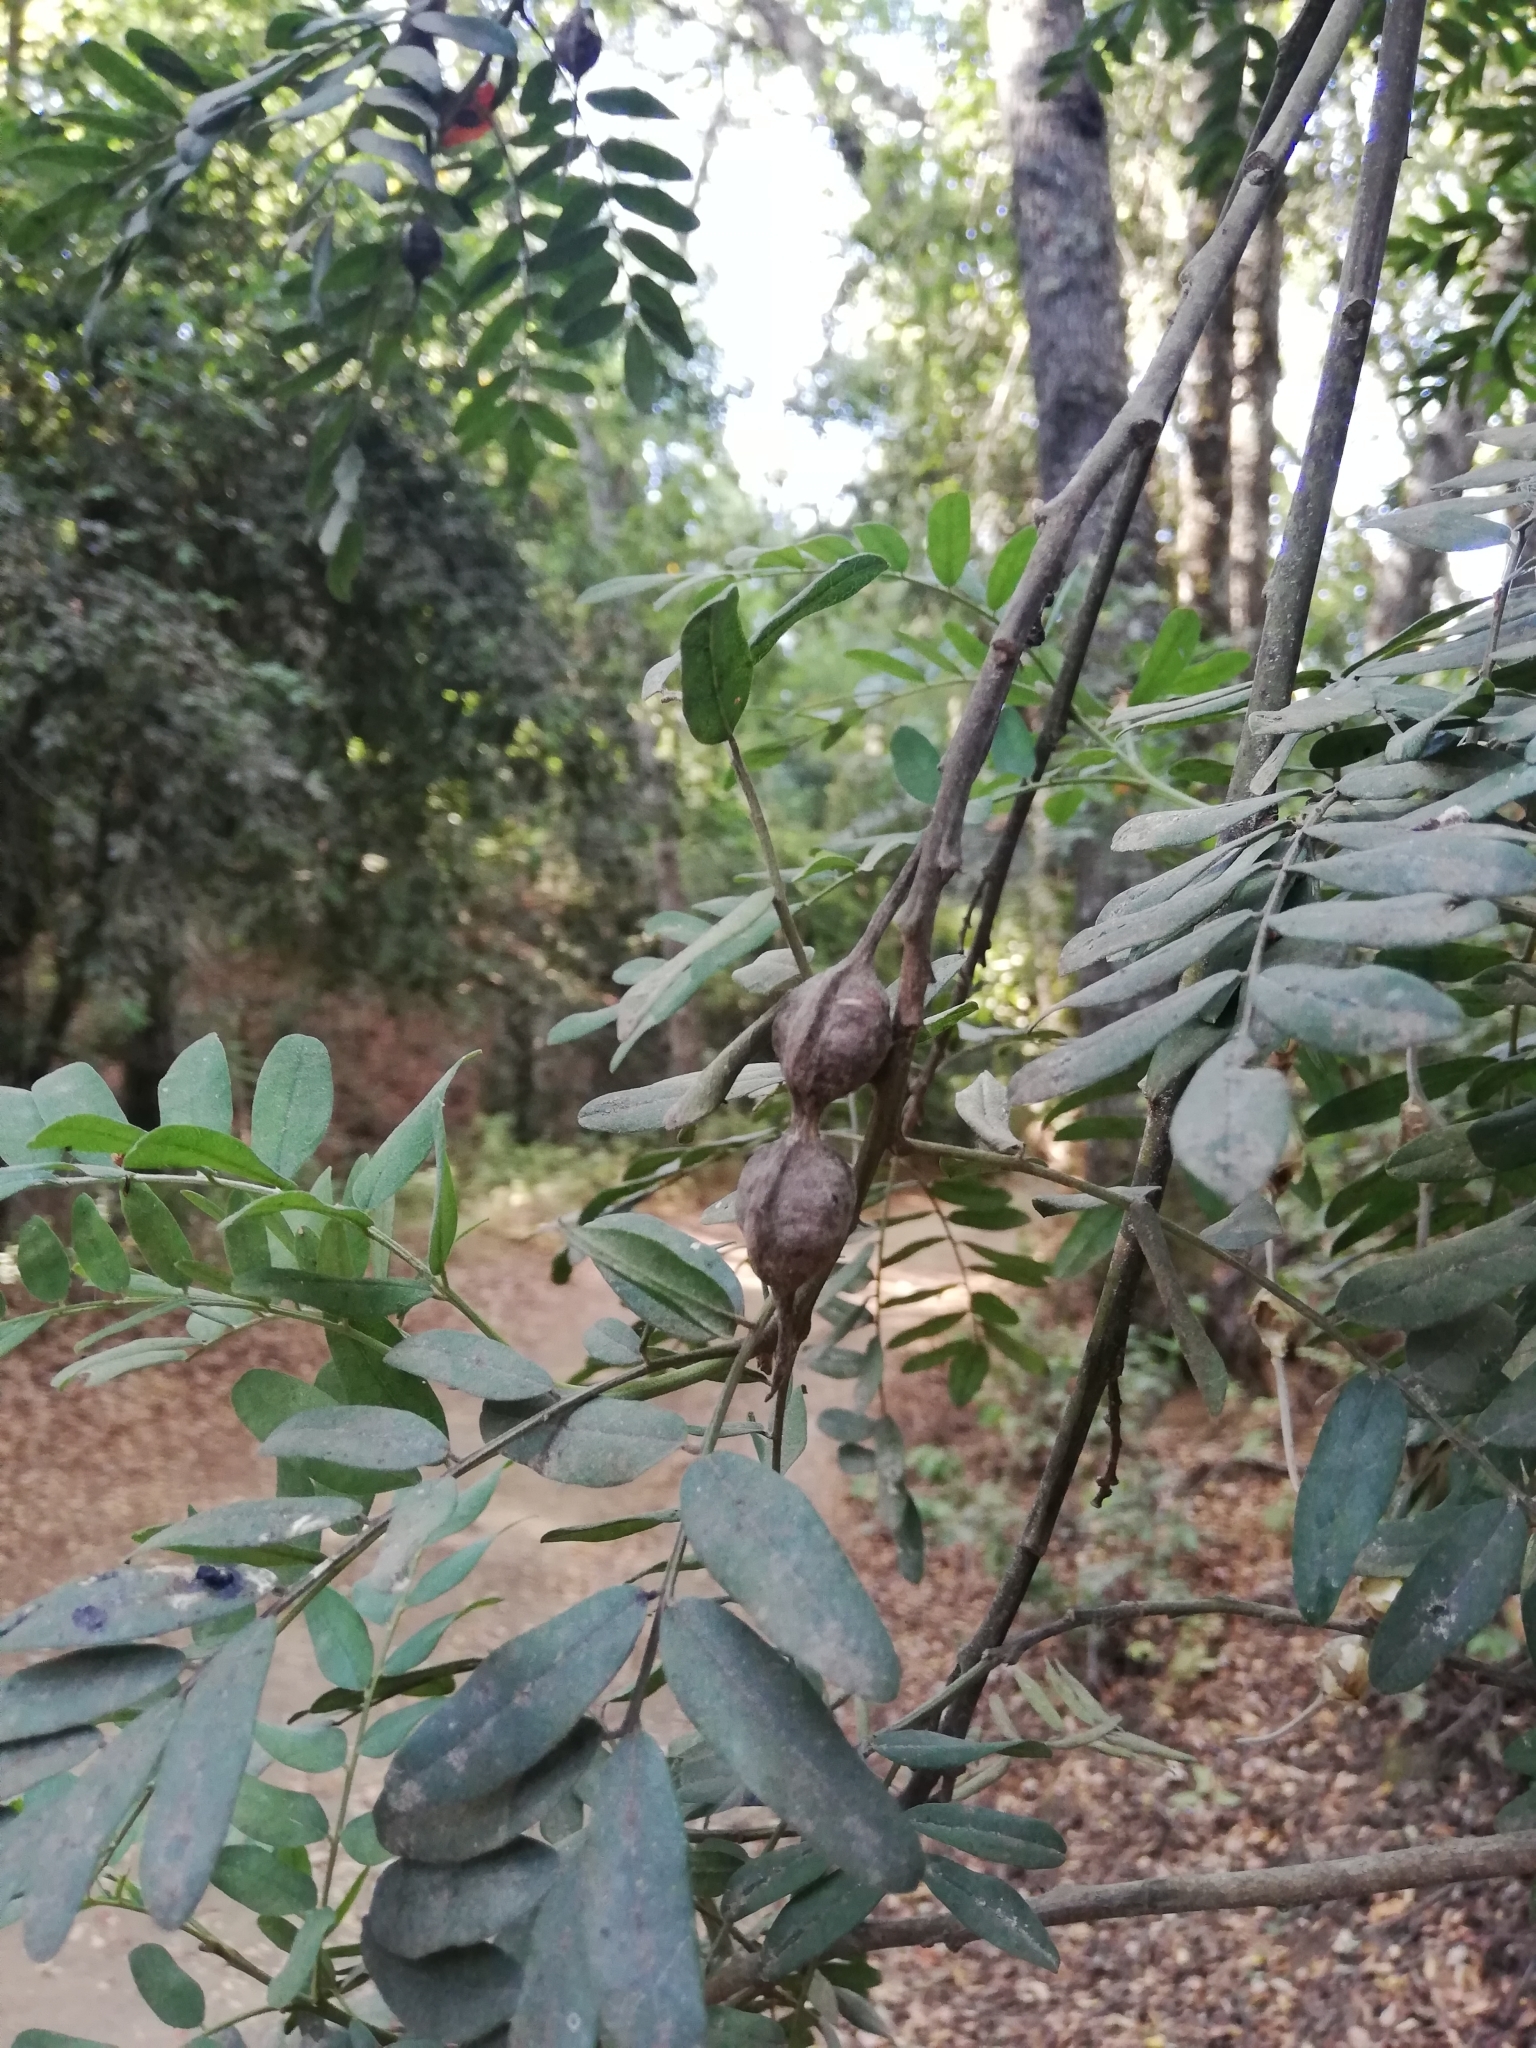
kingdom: Plantae
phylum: Tracheophyta
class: Magnoliopsida
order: Fabales
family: Fabaceae
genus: Sophora
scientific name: Sophora macrocarpa
